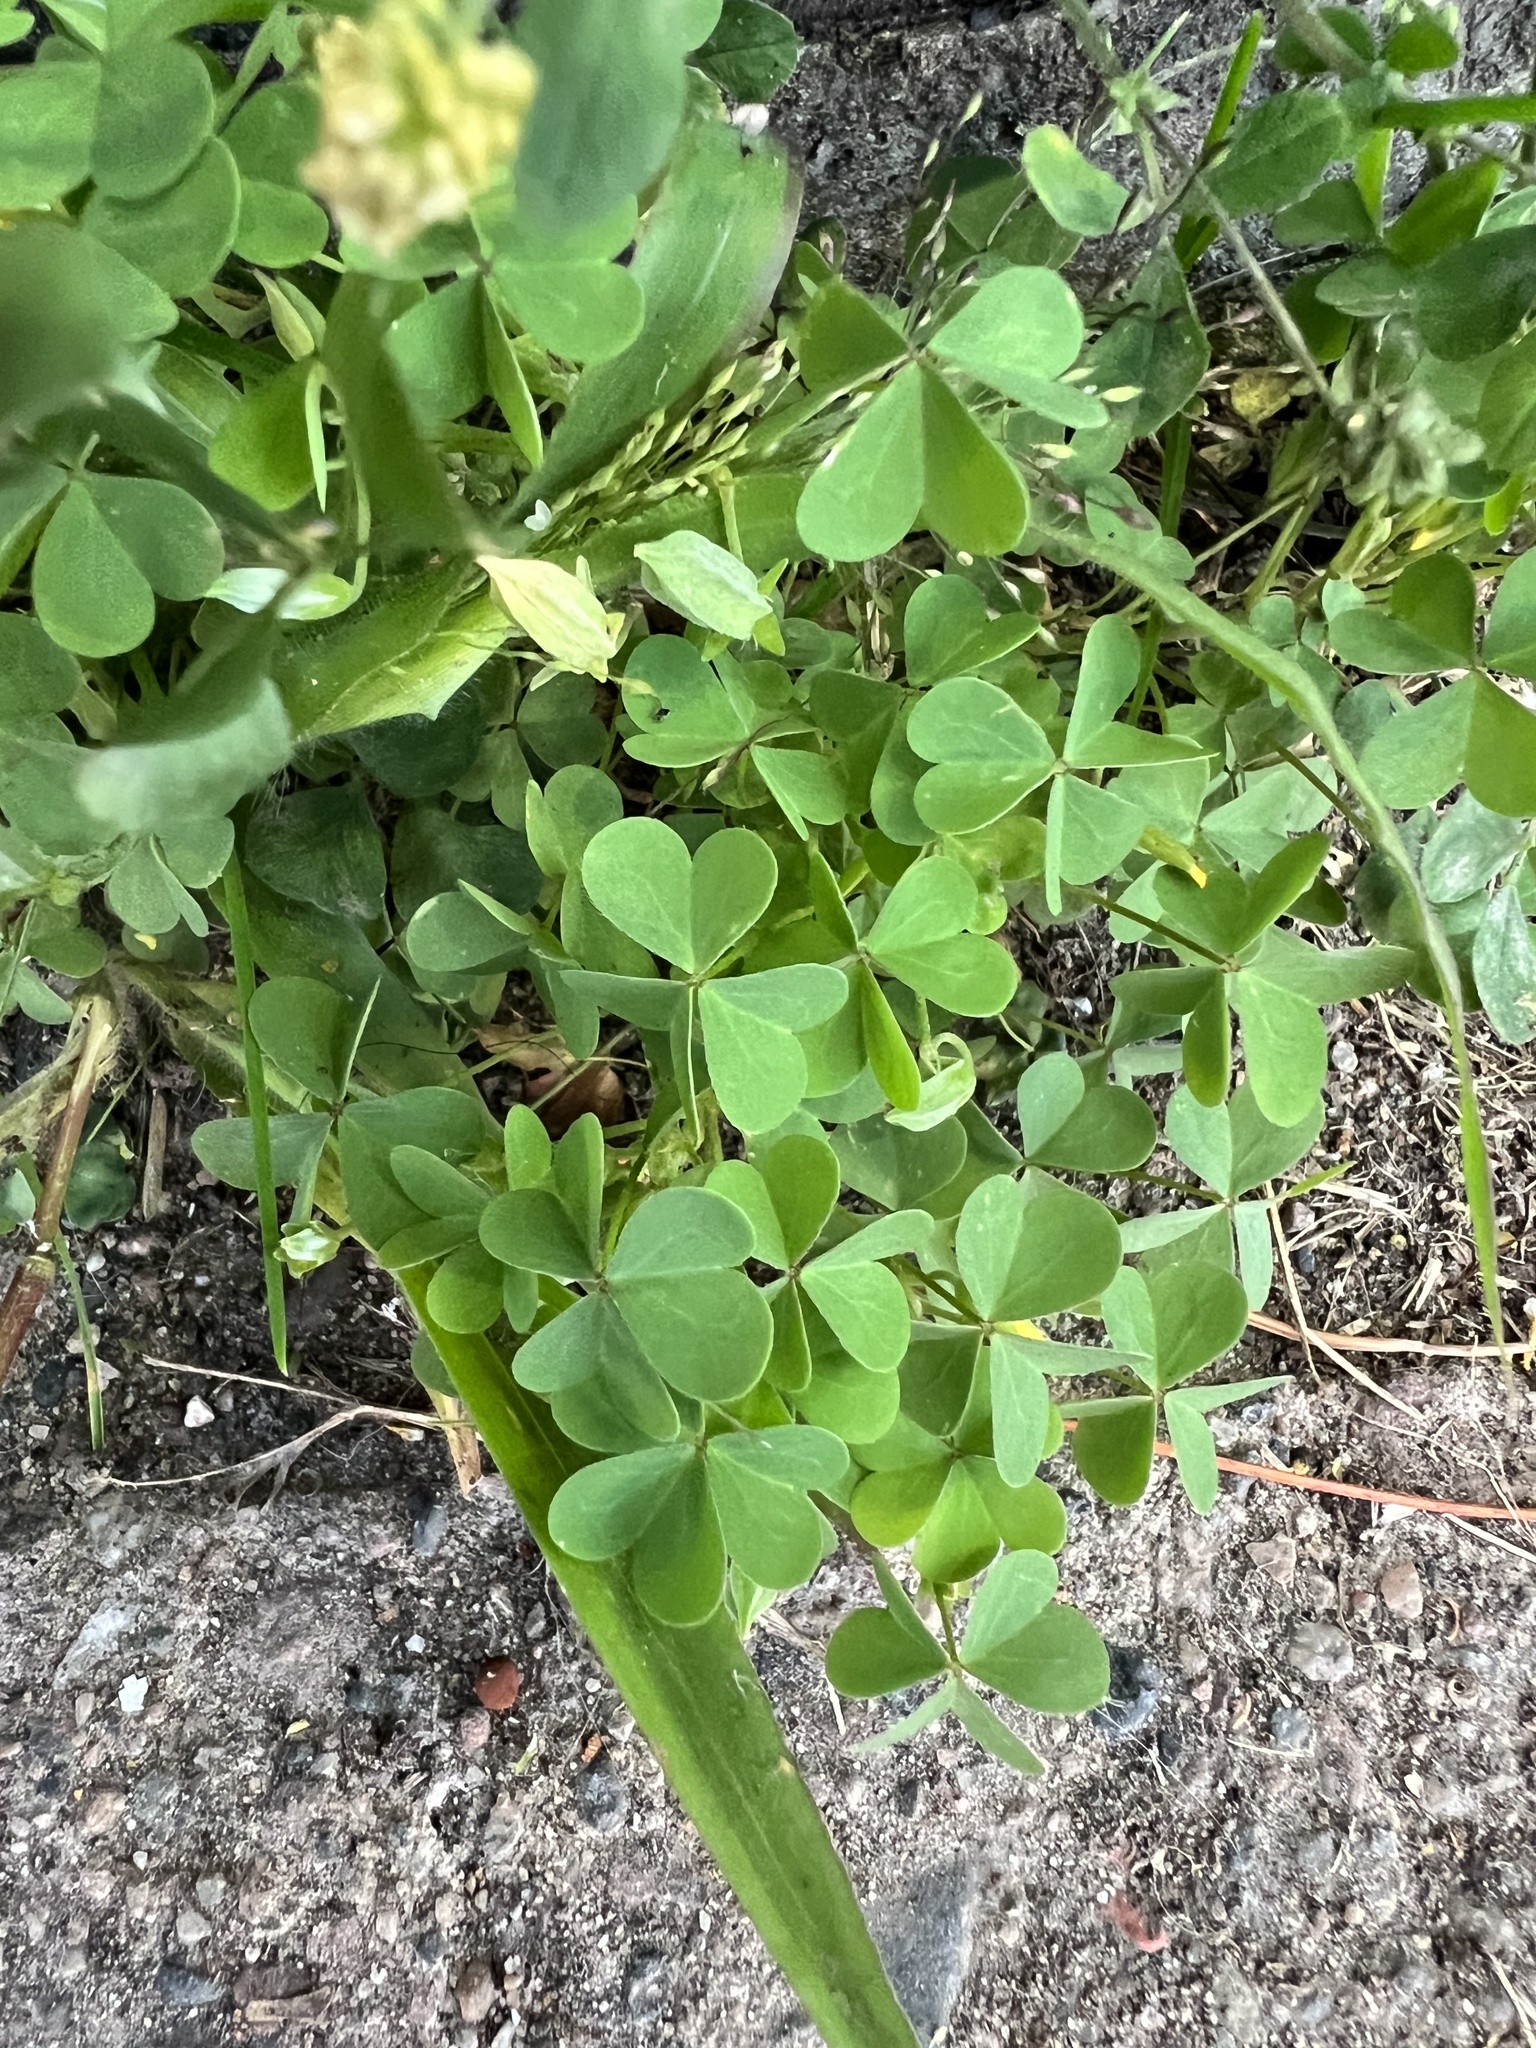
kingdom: Plantae
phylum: Tracheophyta
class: Magnoliopsida
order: Fabales
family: Fabaceae
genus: Medicago
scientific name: Medicago lupulina
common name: Black medick
